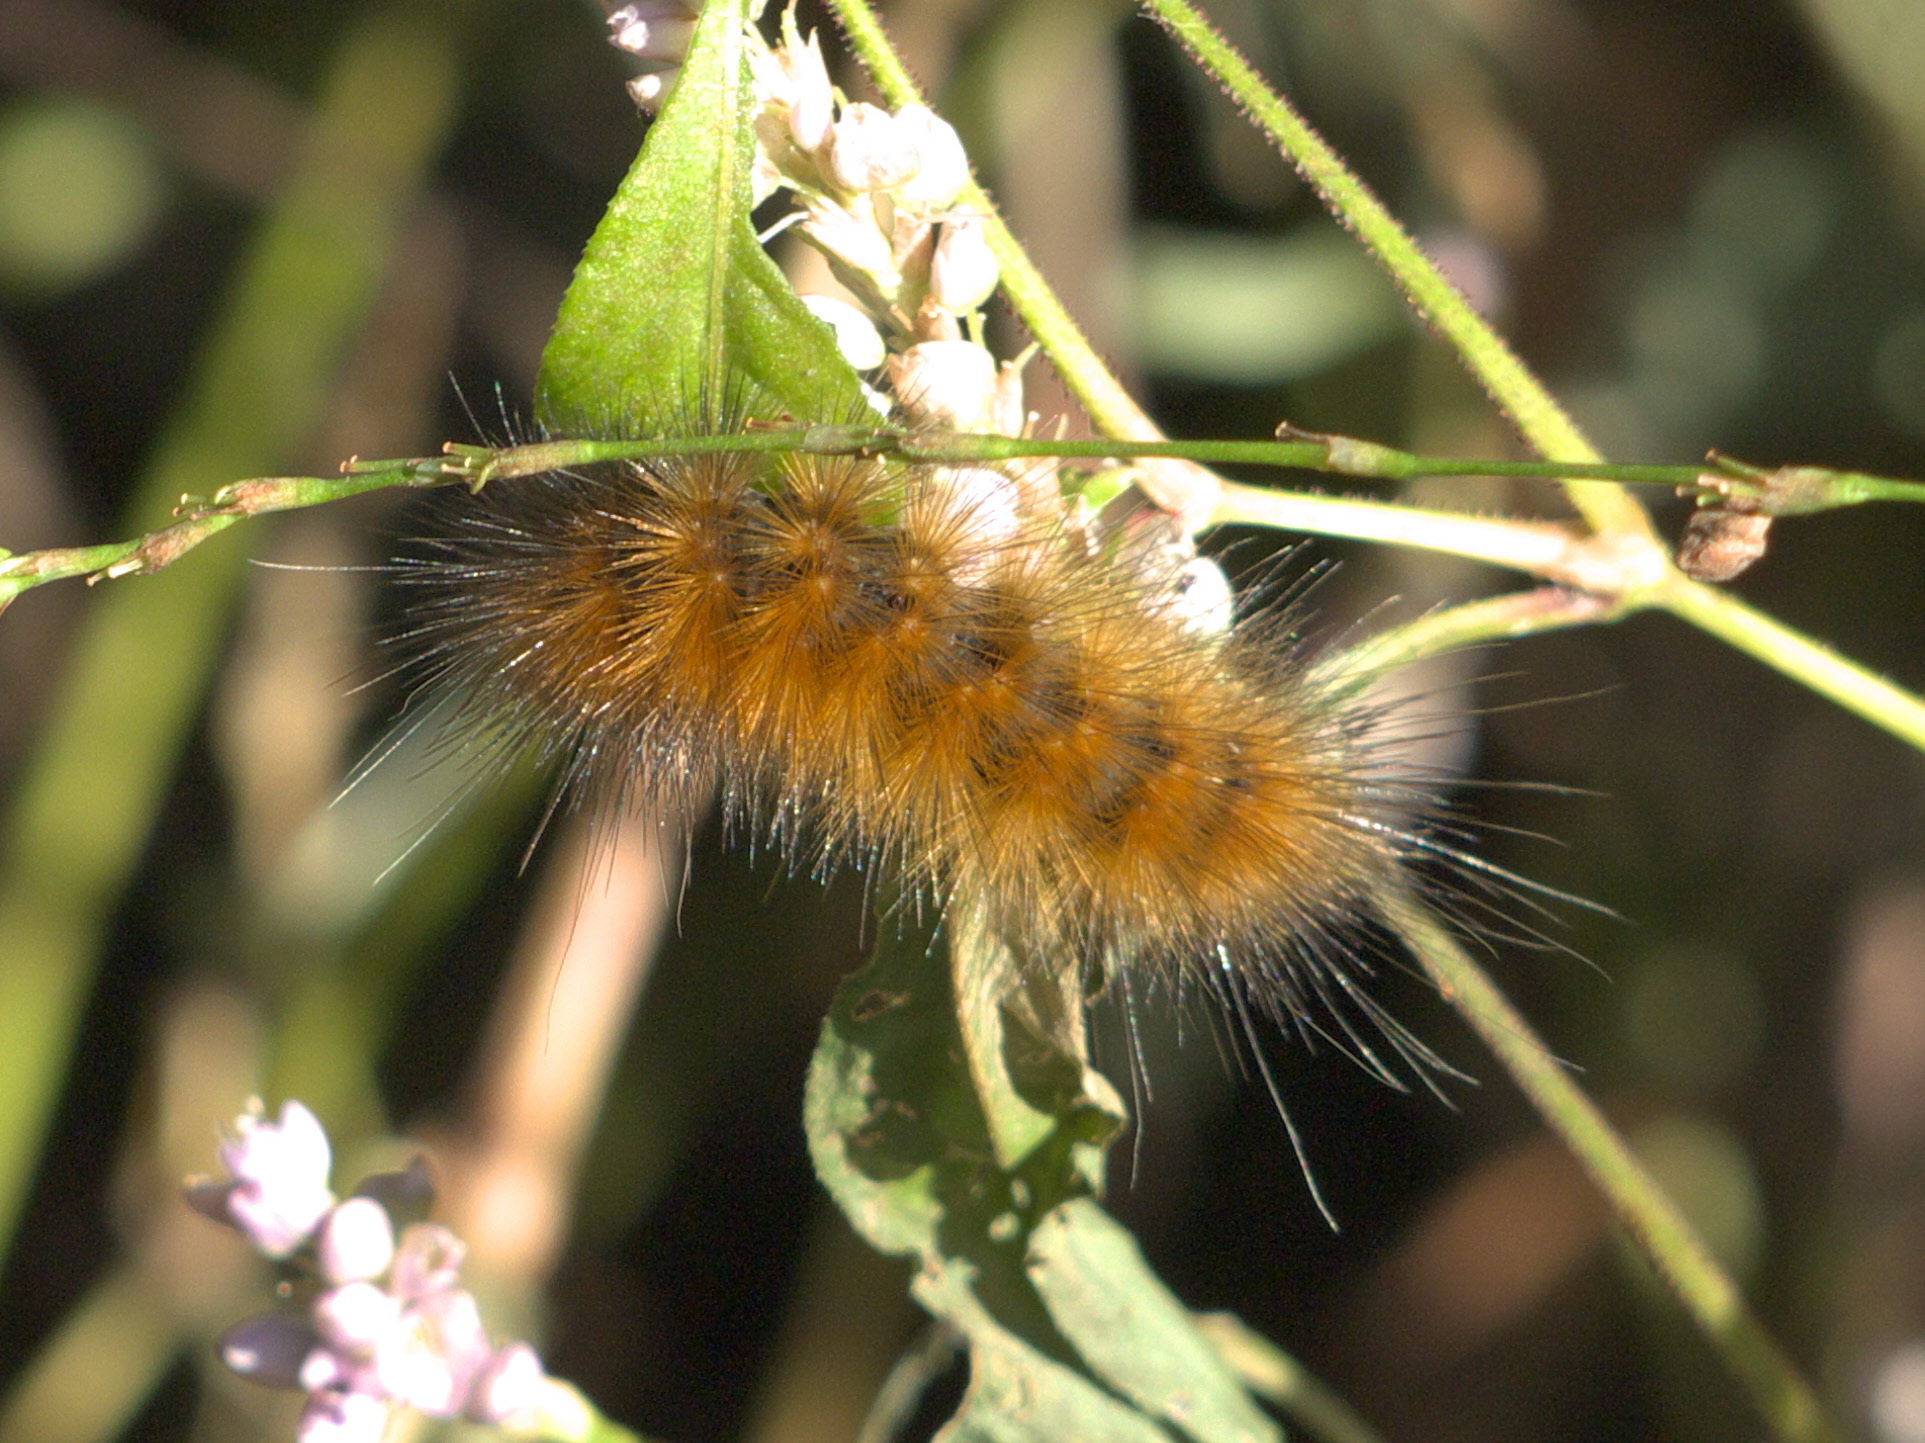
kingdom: Animalia
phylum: Arthropoda
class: Insecta
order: Lepidoptera
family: Erebidae
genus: Spilosoma
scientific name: Spilosoma virginica
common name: Virginia tiger moth
